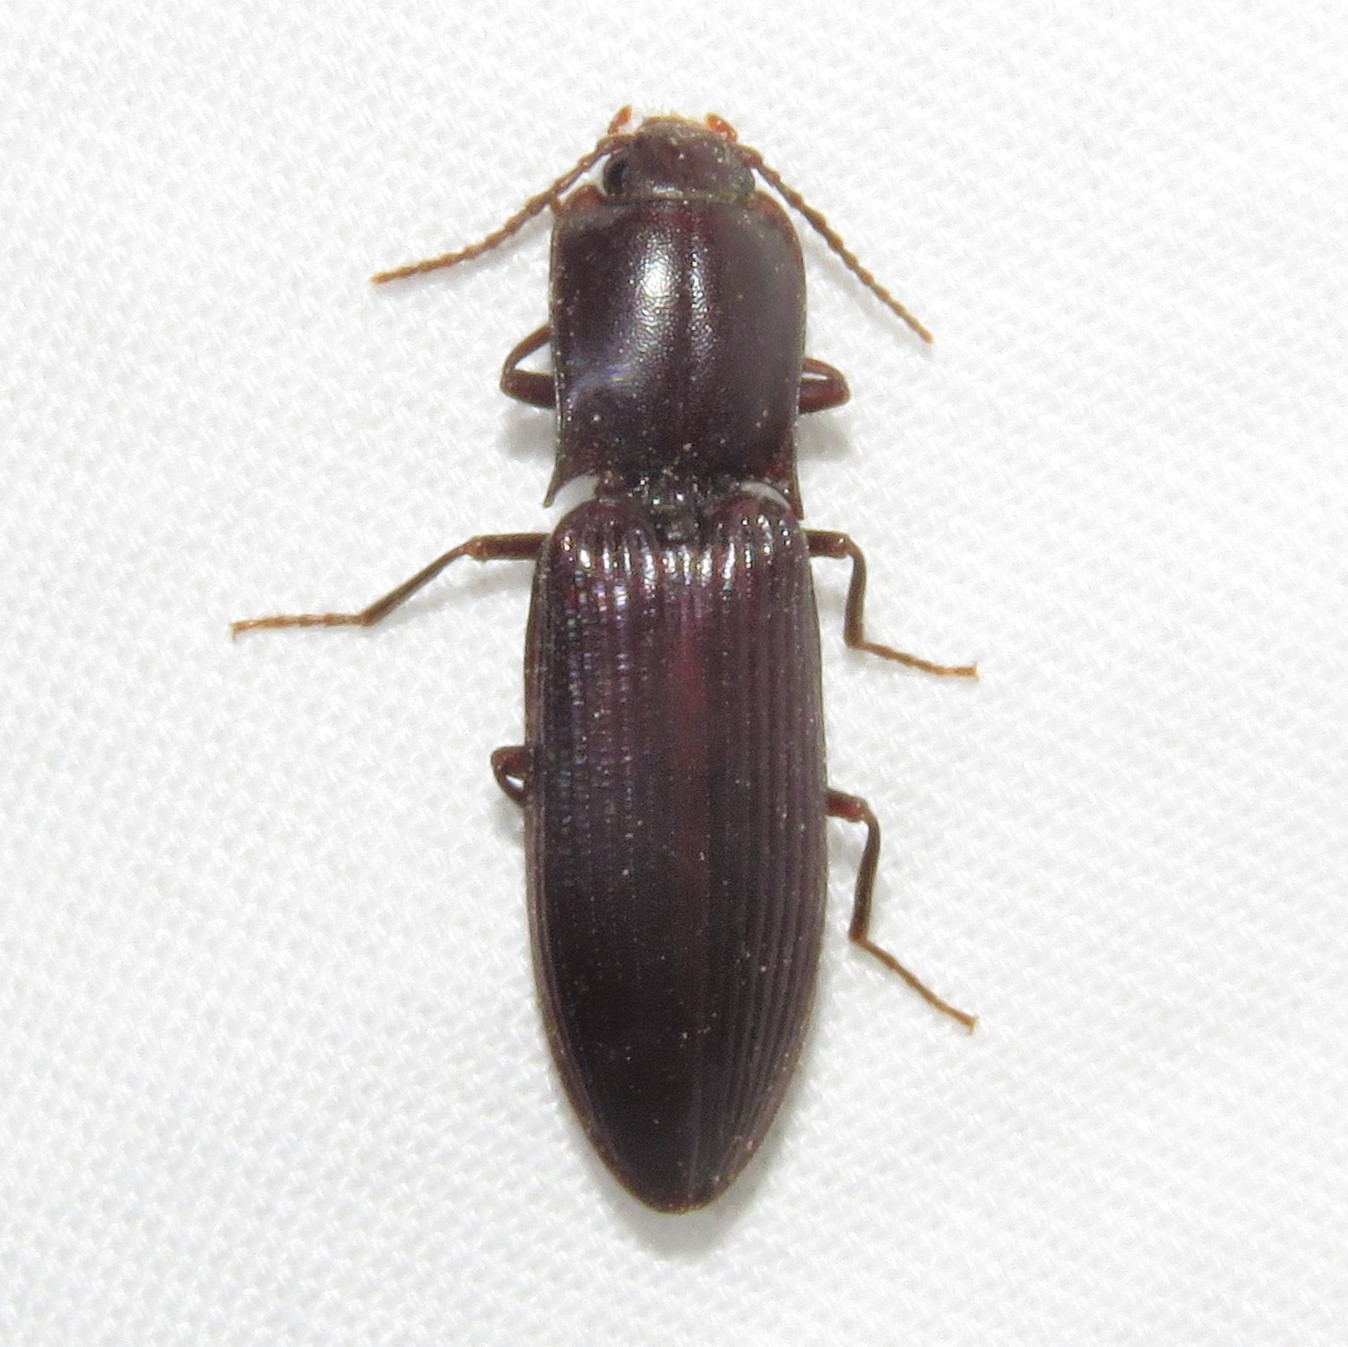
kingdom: Animalia
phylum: Arthropoda
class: Insecta
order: Coleoptera
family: Elateridae
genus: Laneganus
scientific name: Laneganus sulcicollis
